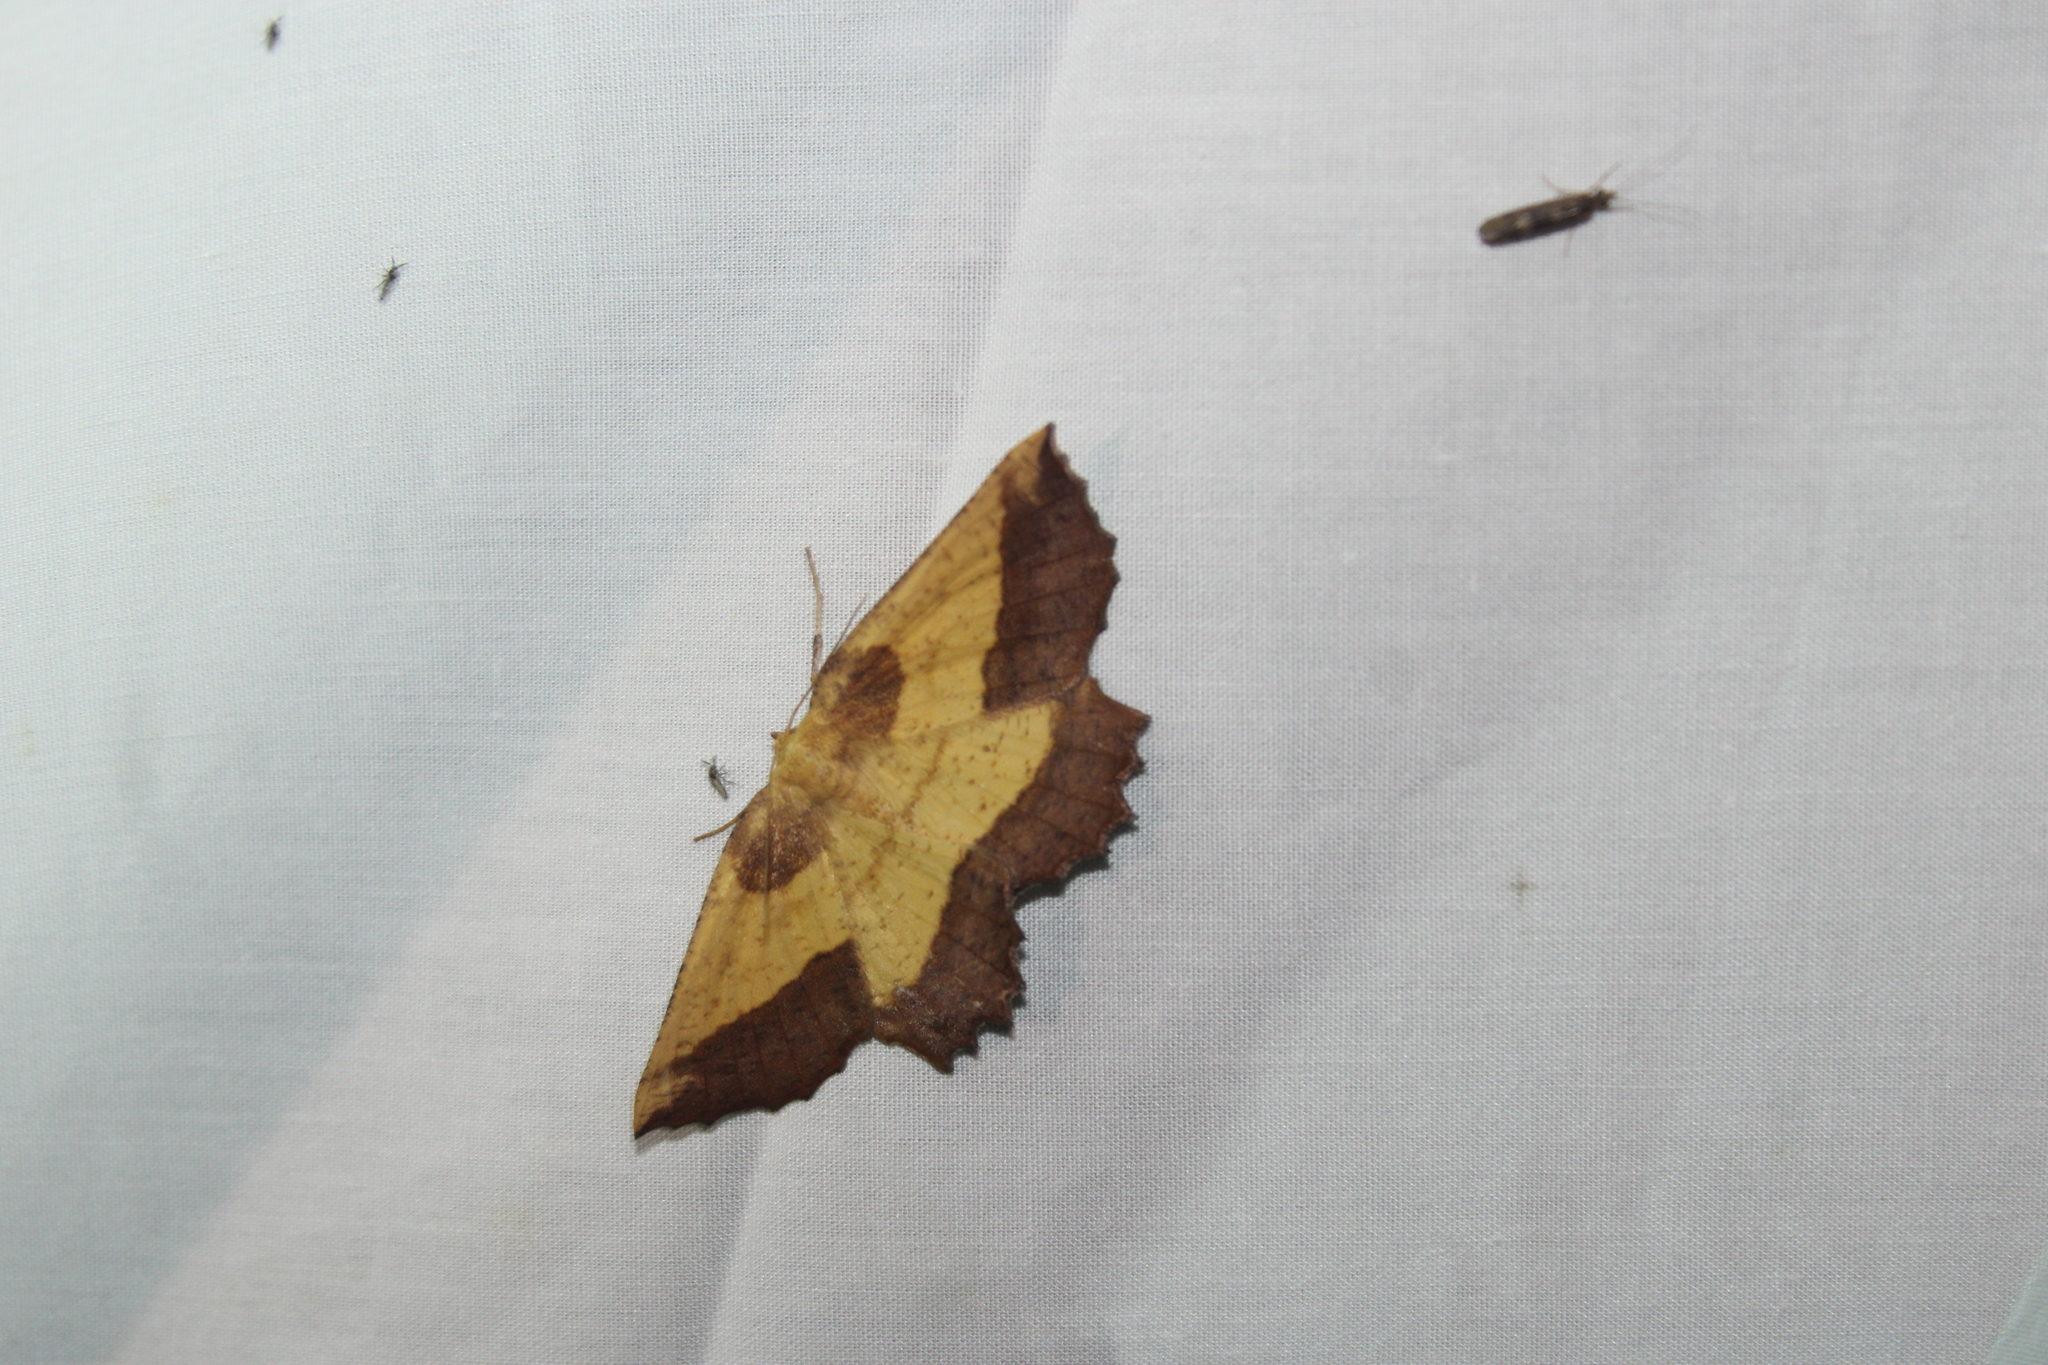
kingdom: Animalia
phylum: Arthropoda
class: Insecta
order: Lepidoptera
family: Geometridae
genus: Euchlaena
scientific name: Euchlaena serrata
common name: Saw wing
